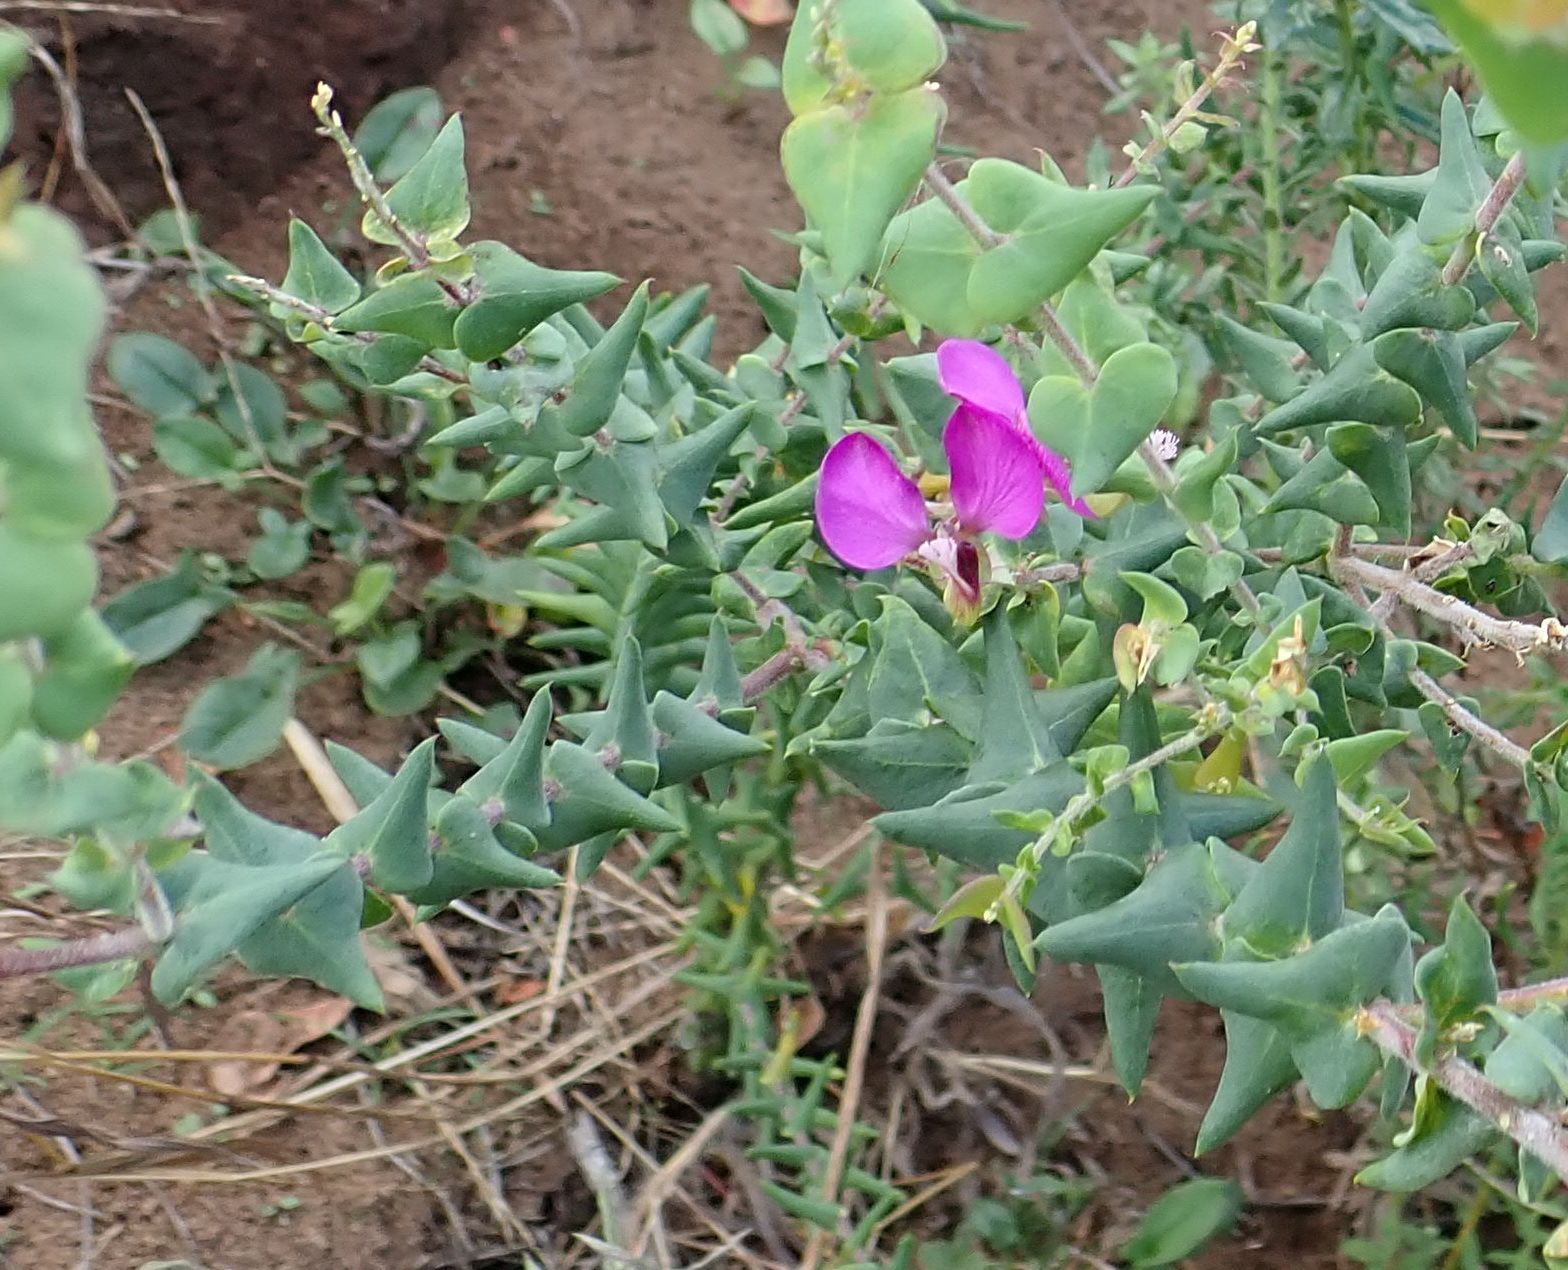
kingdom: Plantae
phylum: Tracheophyta
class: Magnoliopsida
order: Fabales
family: Polygalaceae
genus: Polygala
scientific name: Polygala fruticosa
